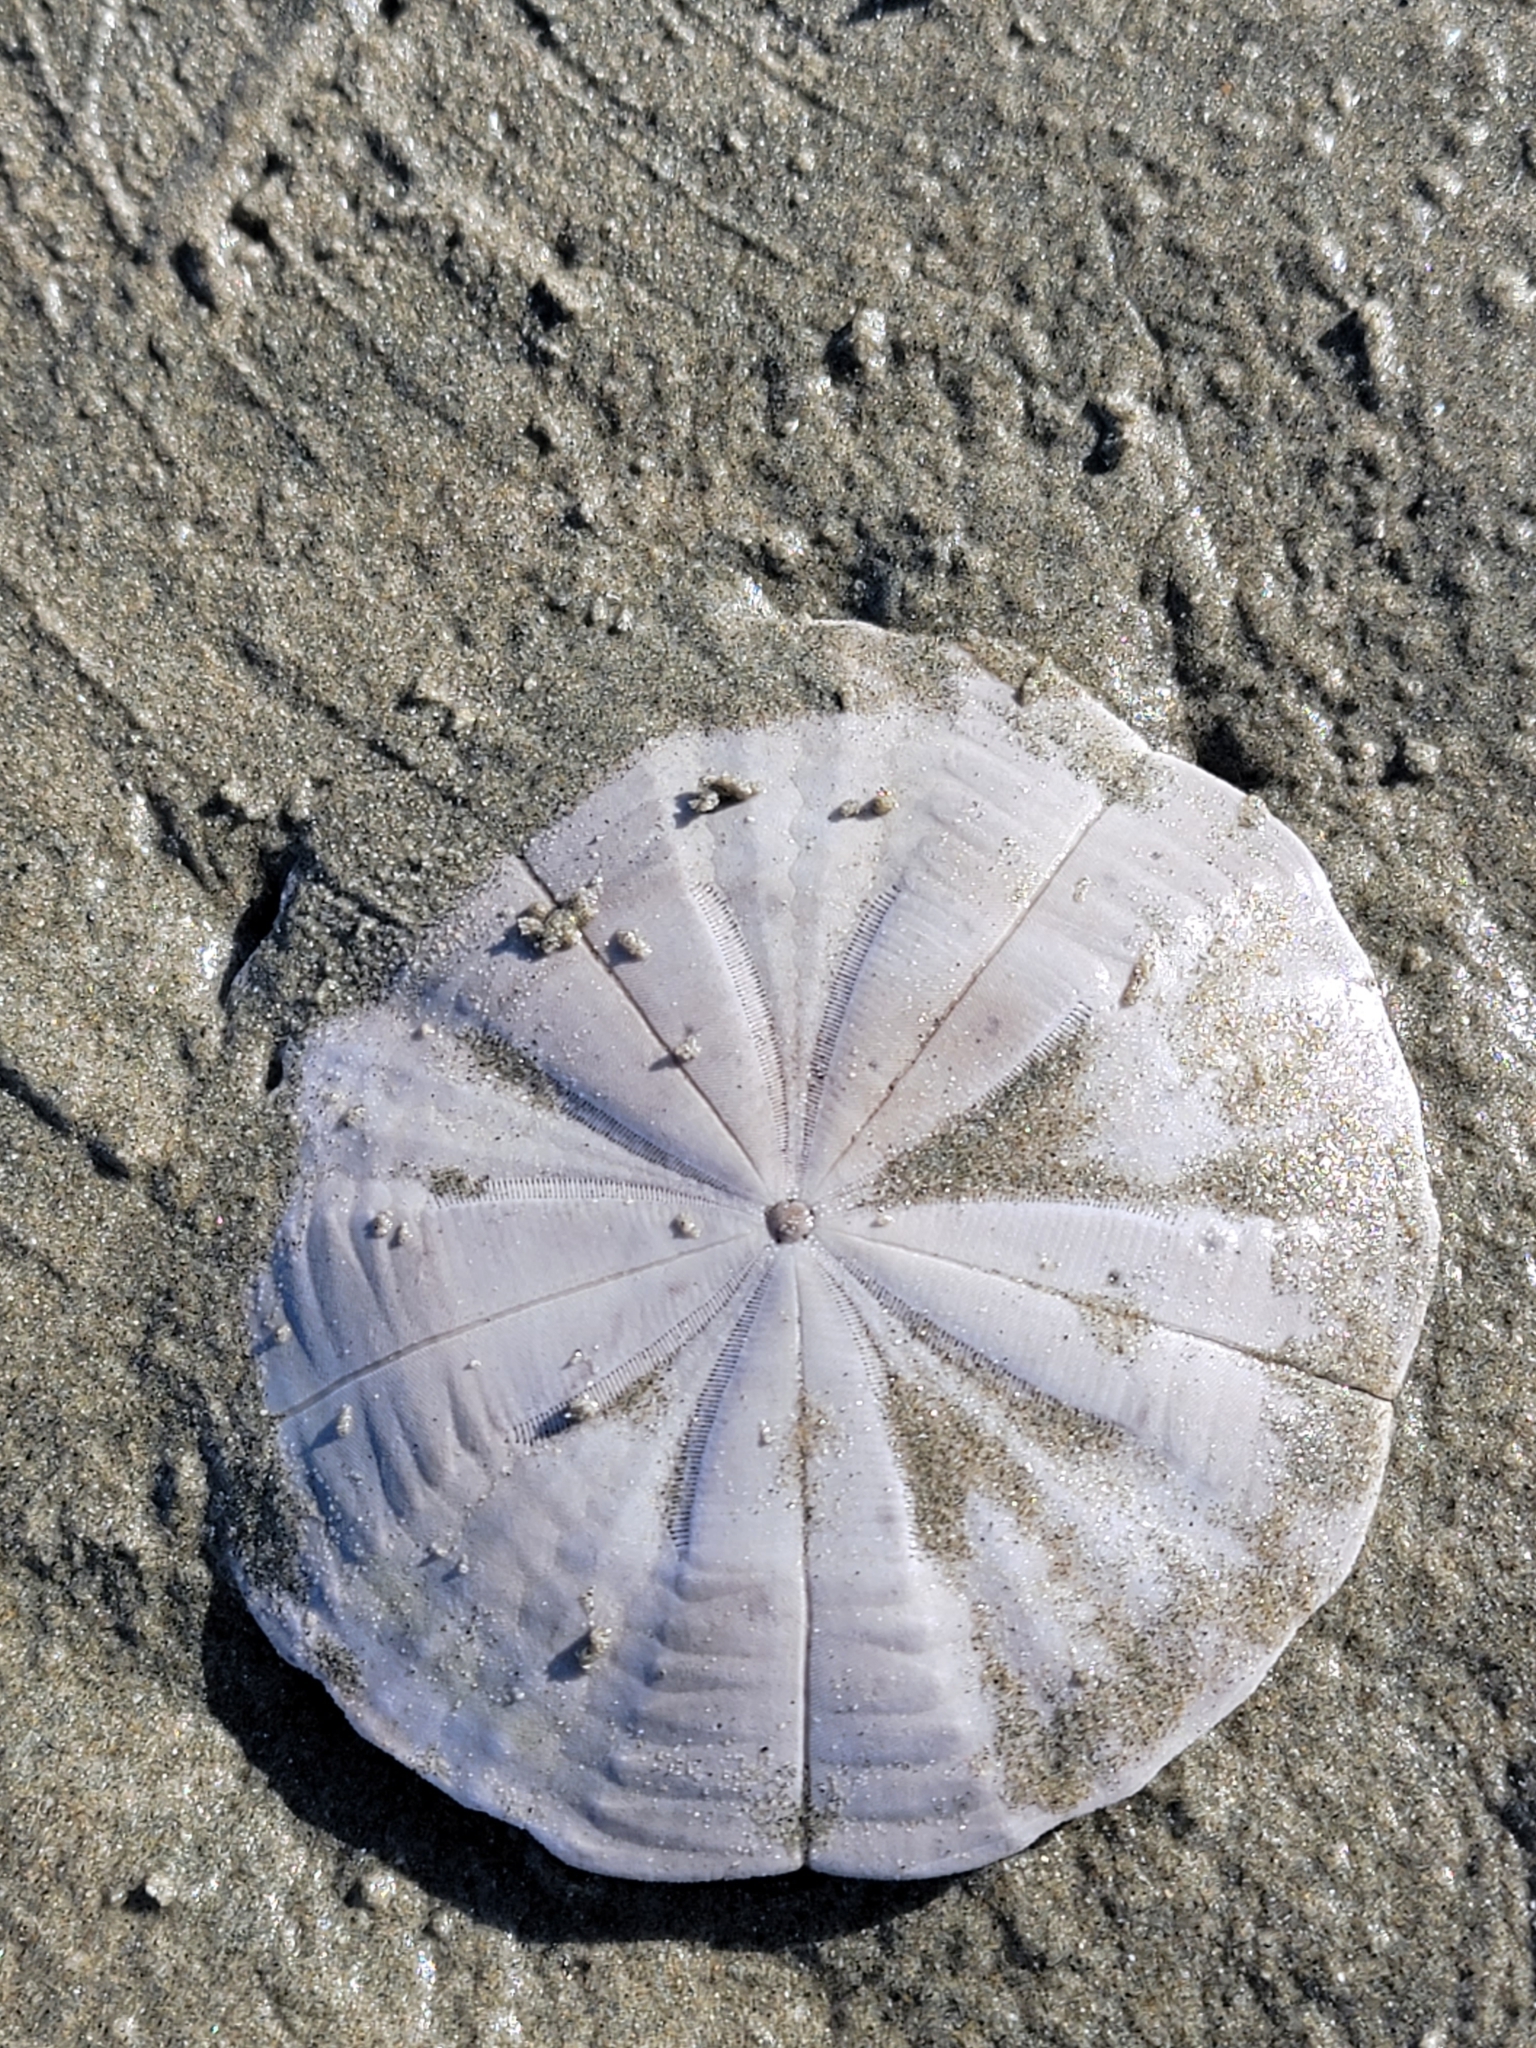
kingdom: Animalia
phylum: Echinodermata
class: Echinoidea
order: Clypeasteroida
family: Clypeasteridae
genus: Fellaster
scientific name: Fellaster zelandiae
